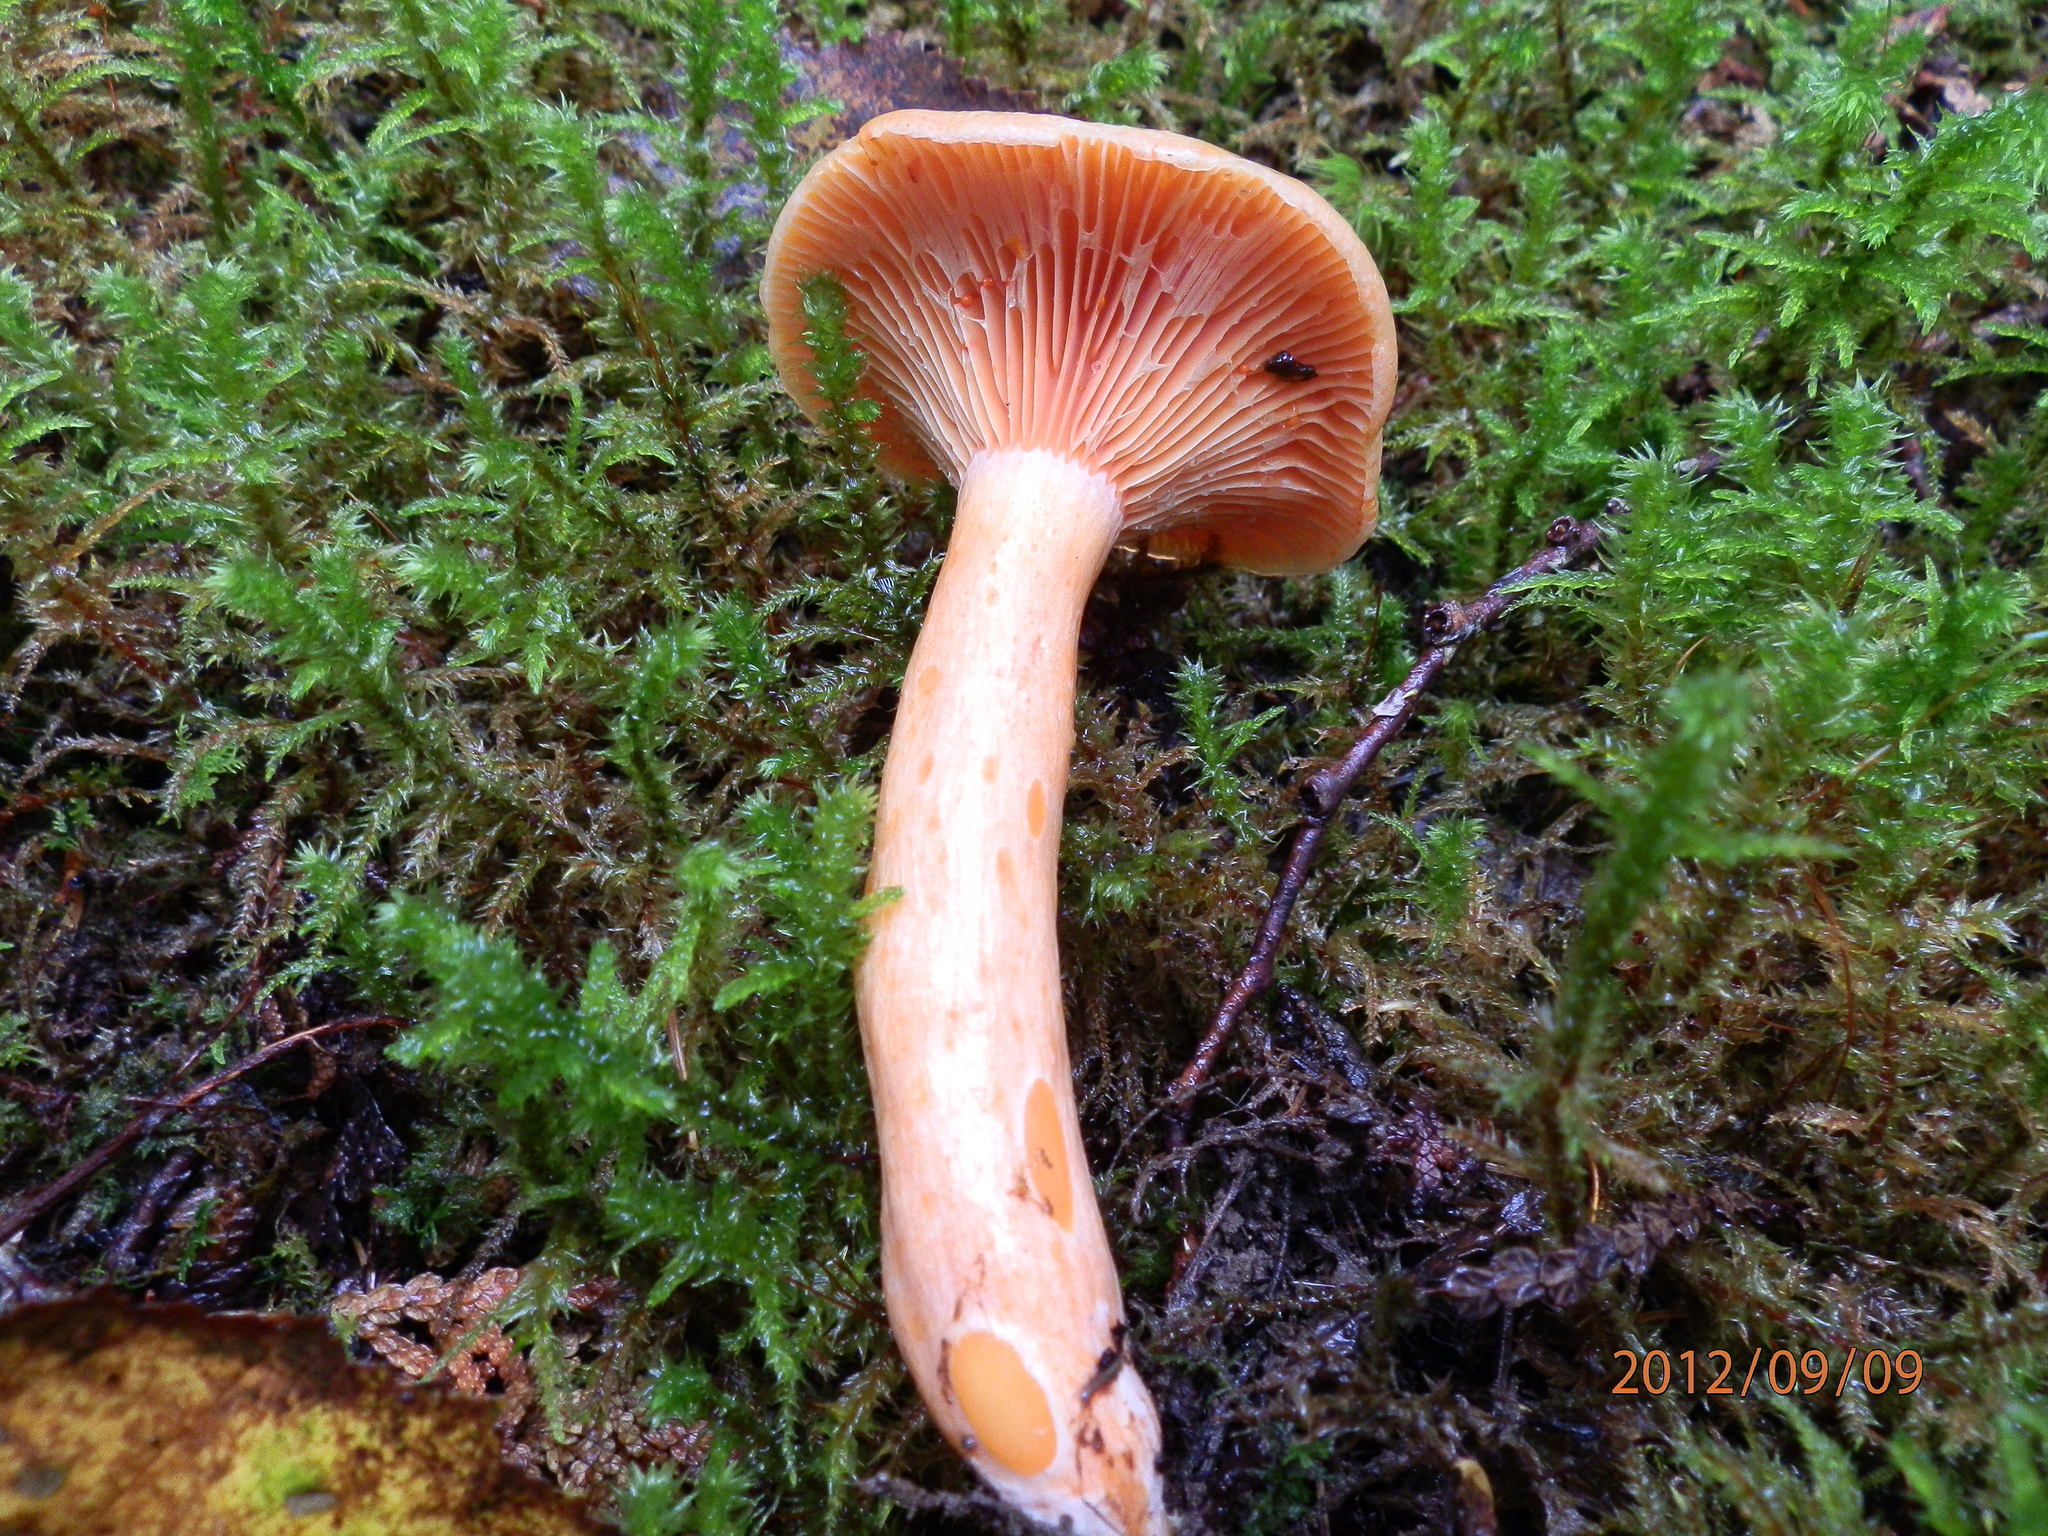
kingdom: Fungi
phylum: Basidiomycota
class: Agaricomycetes
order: Russulales
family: Russulaceae
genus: Lactarius
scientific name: Lactarius salmonicolor
